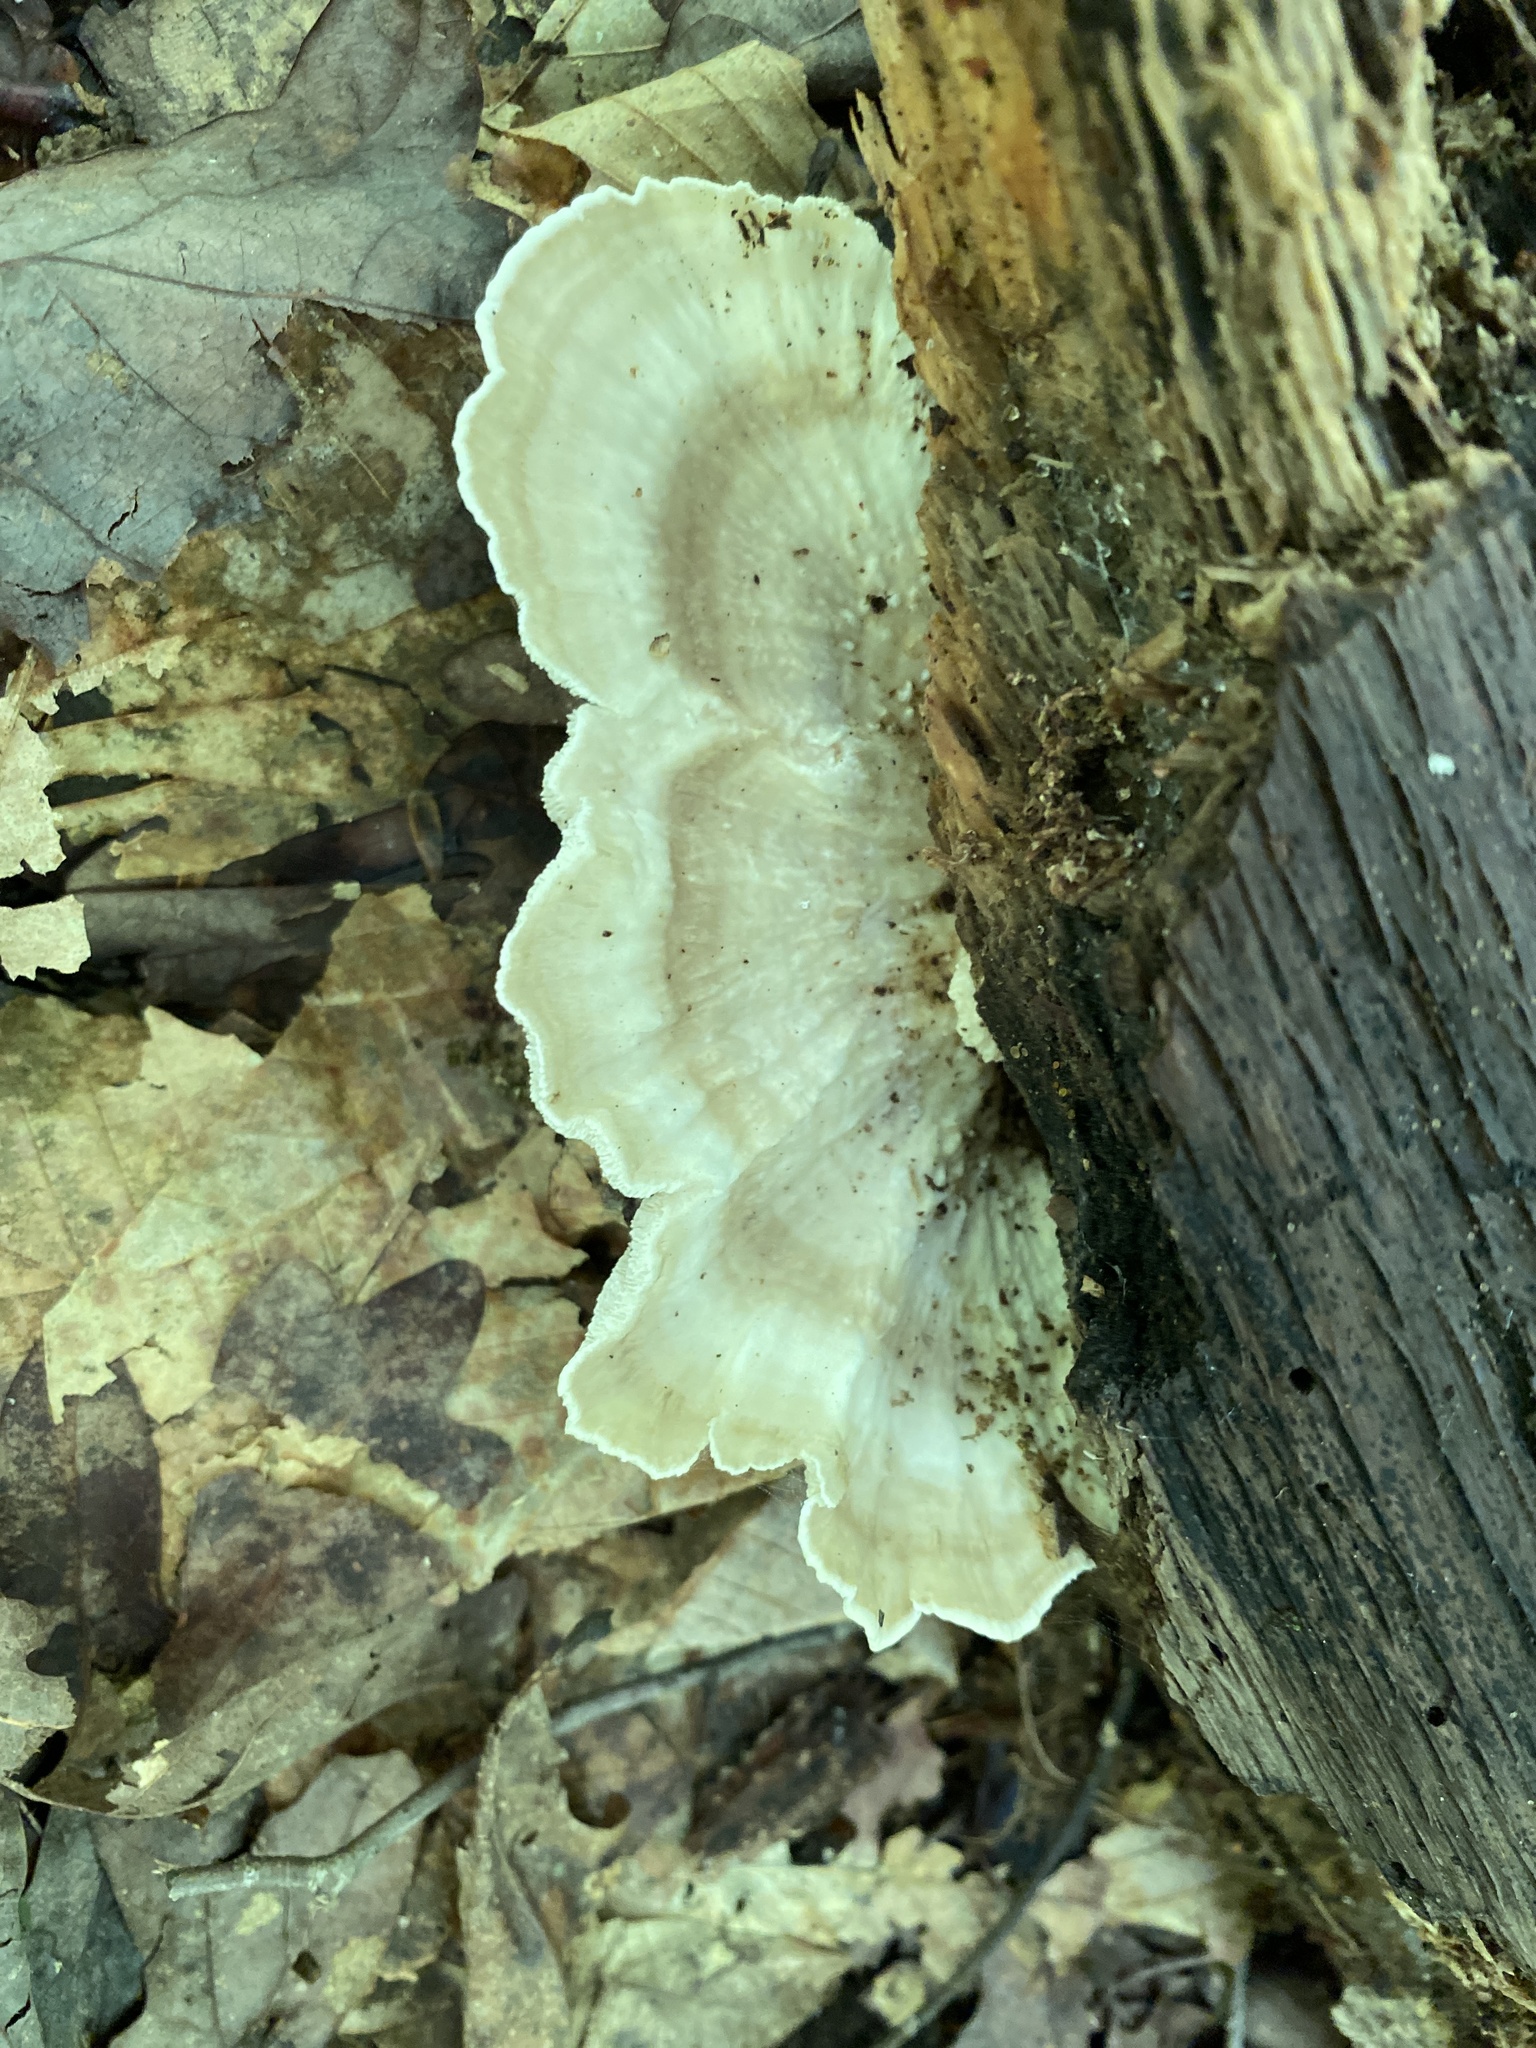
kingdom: Fungi
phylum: Basidiomycota
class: Agaricomycetes
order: Polyporales
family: Polyporaceae
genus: Trametes
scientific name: Trametes lactinea
